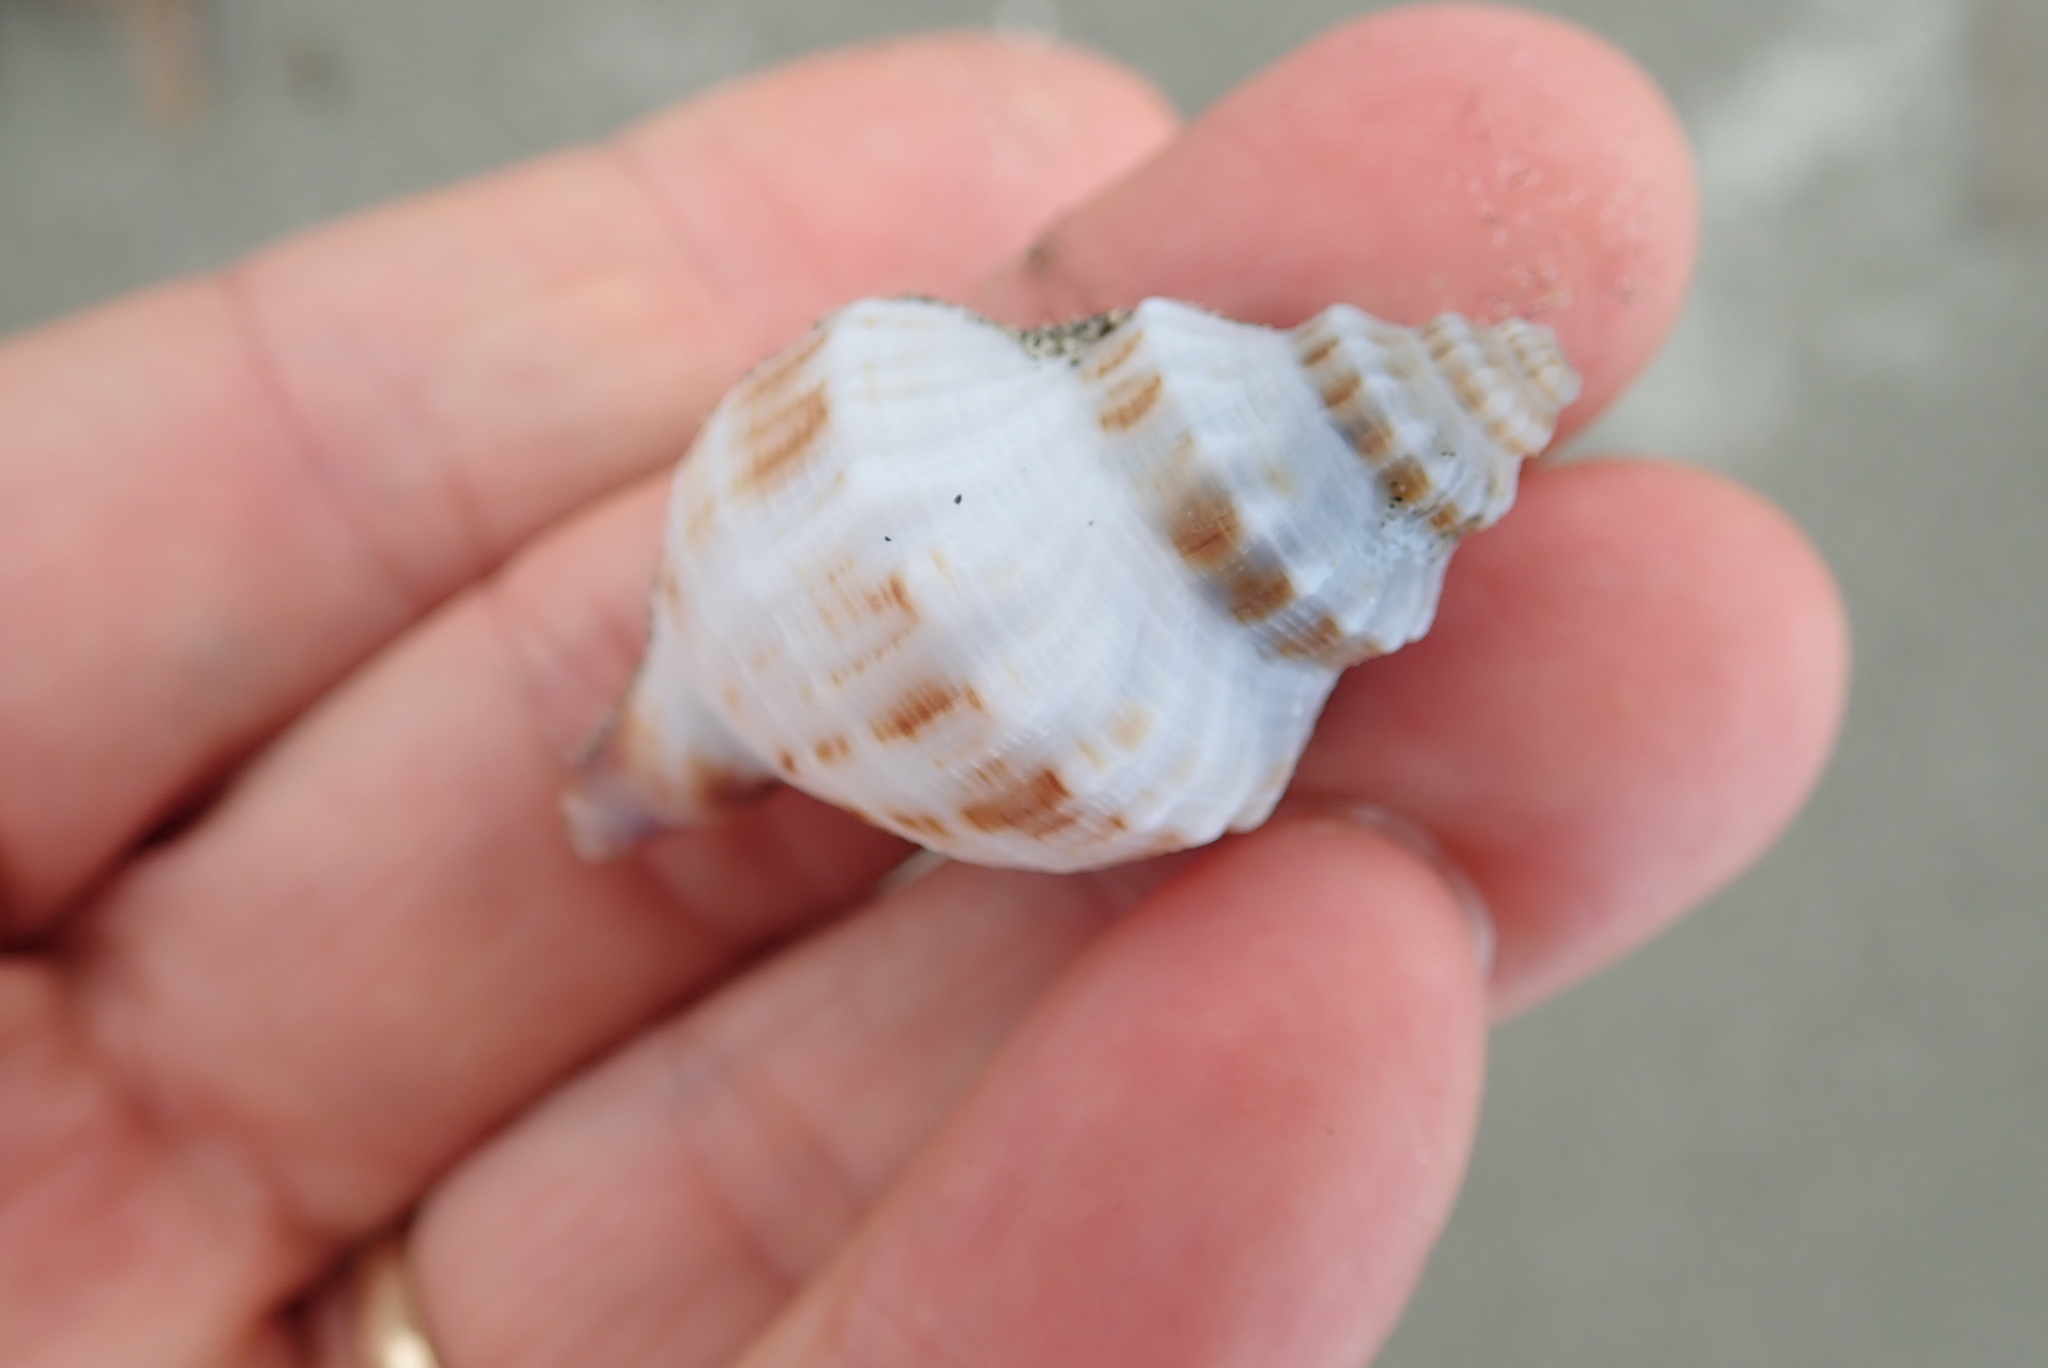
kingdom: Animalia
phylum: Mollusca
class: Gastropoda
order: Neogastropoda
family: Prosiphonidae
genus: Austrofusus
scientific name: Austrofusus glans
